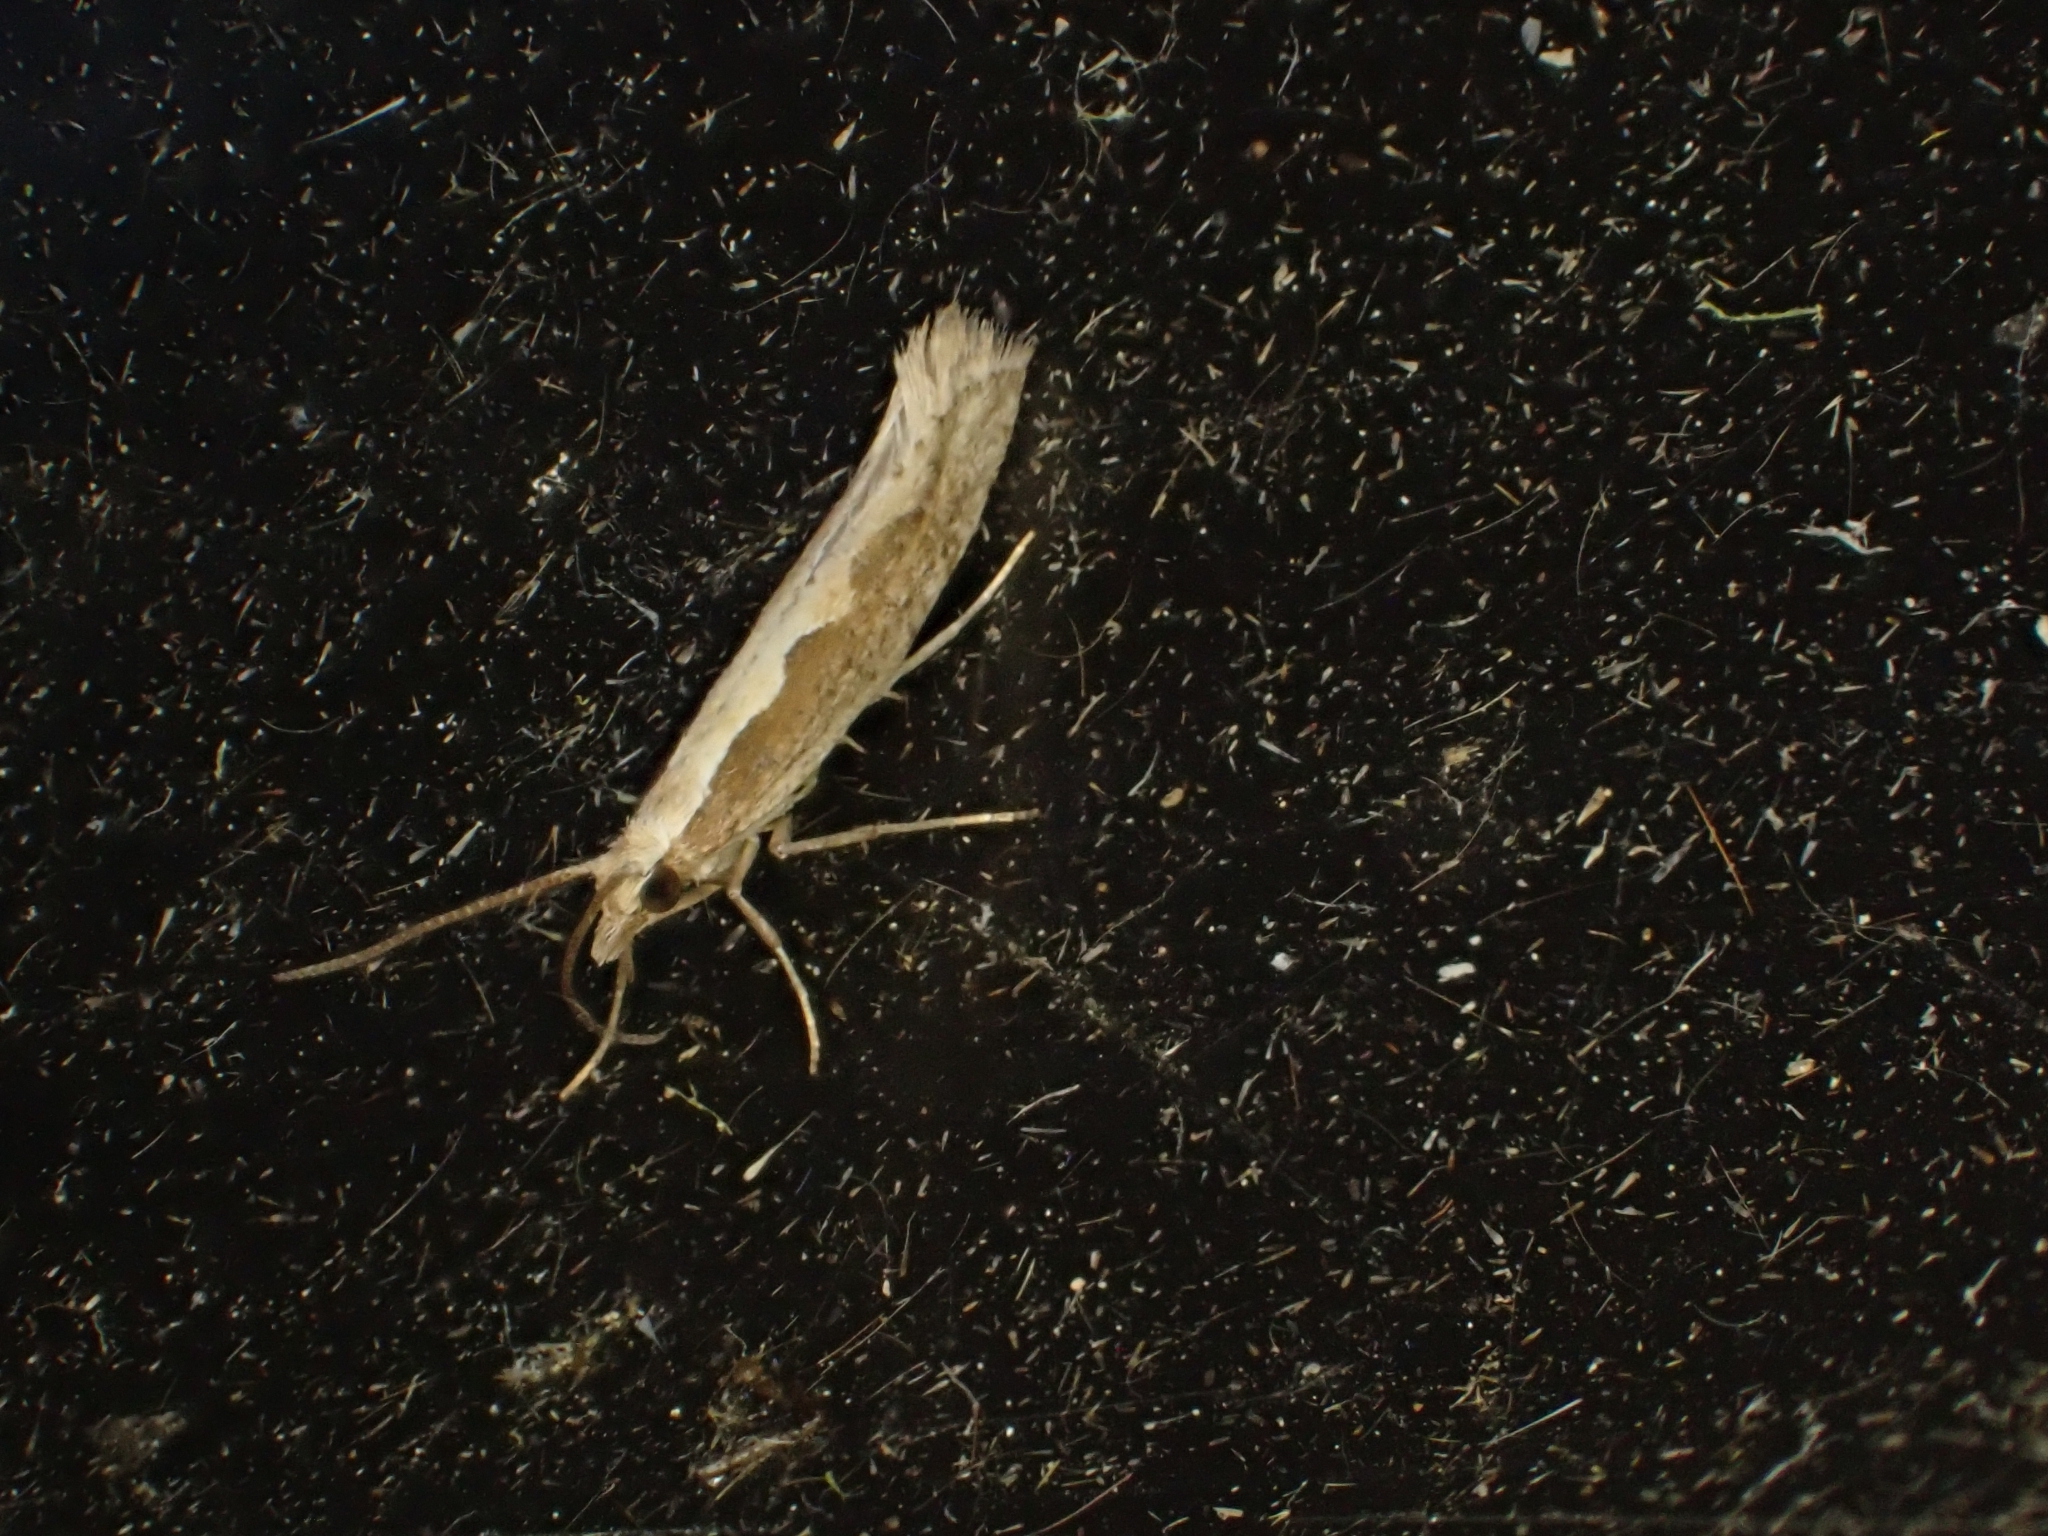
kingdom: Animalia
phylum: Arthropoda
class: Insecta
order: Lepidoptera
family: Plutellidae
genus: Plutella
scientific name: Plutella xylostella
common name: Diamond-back moth
